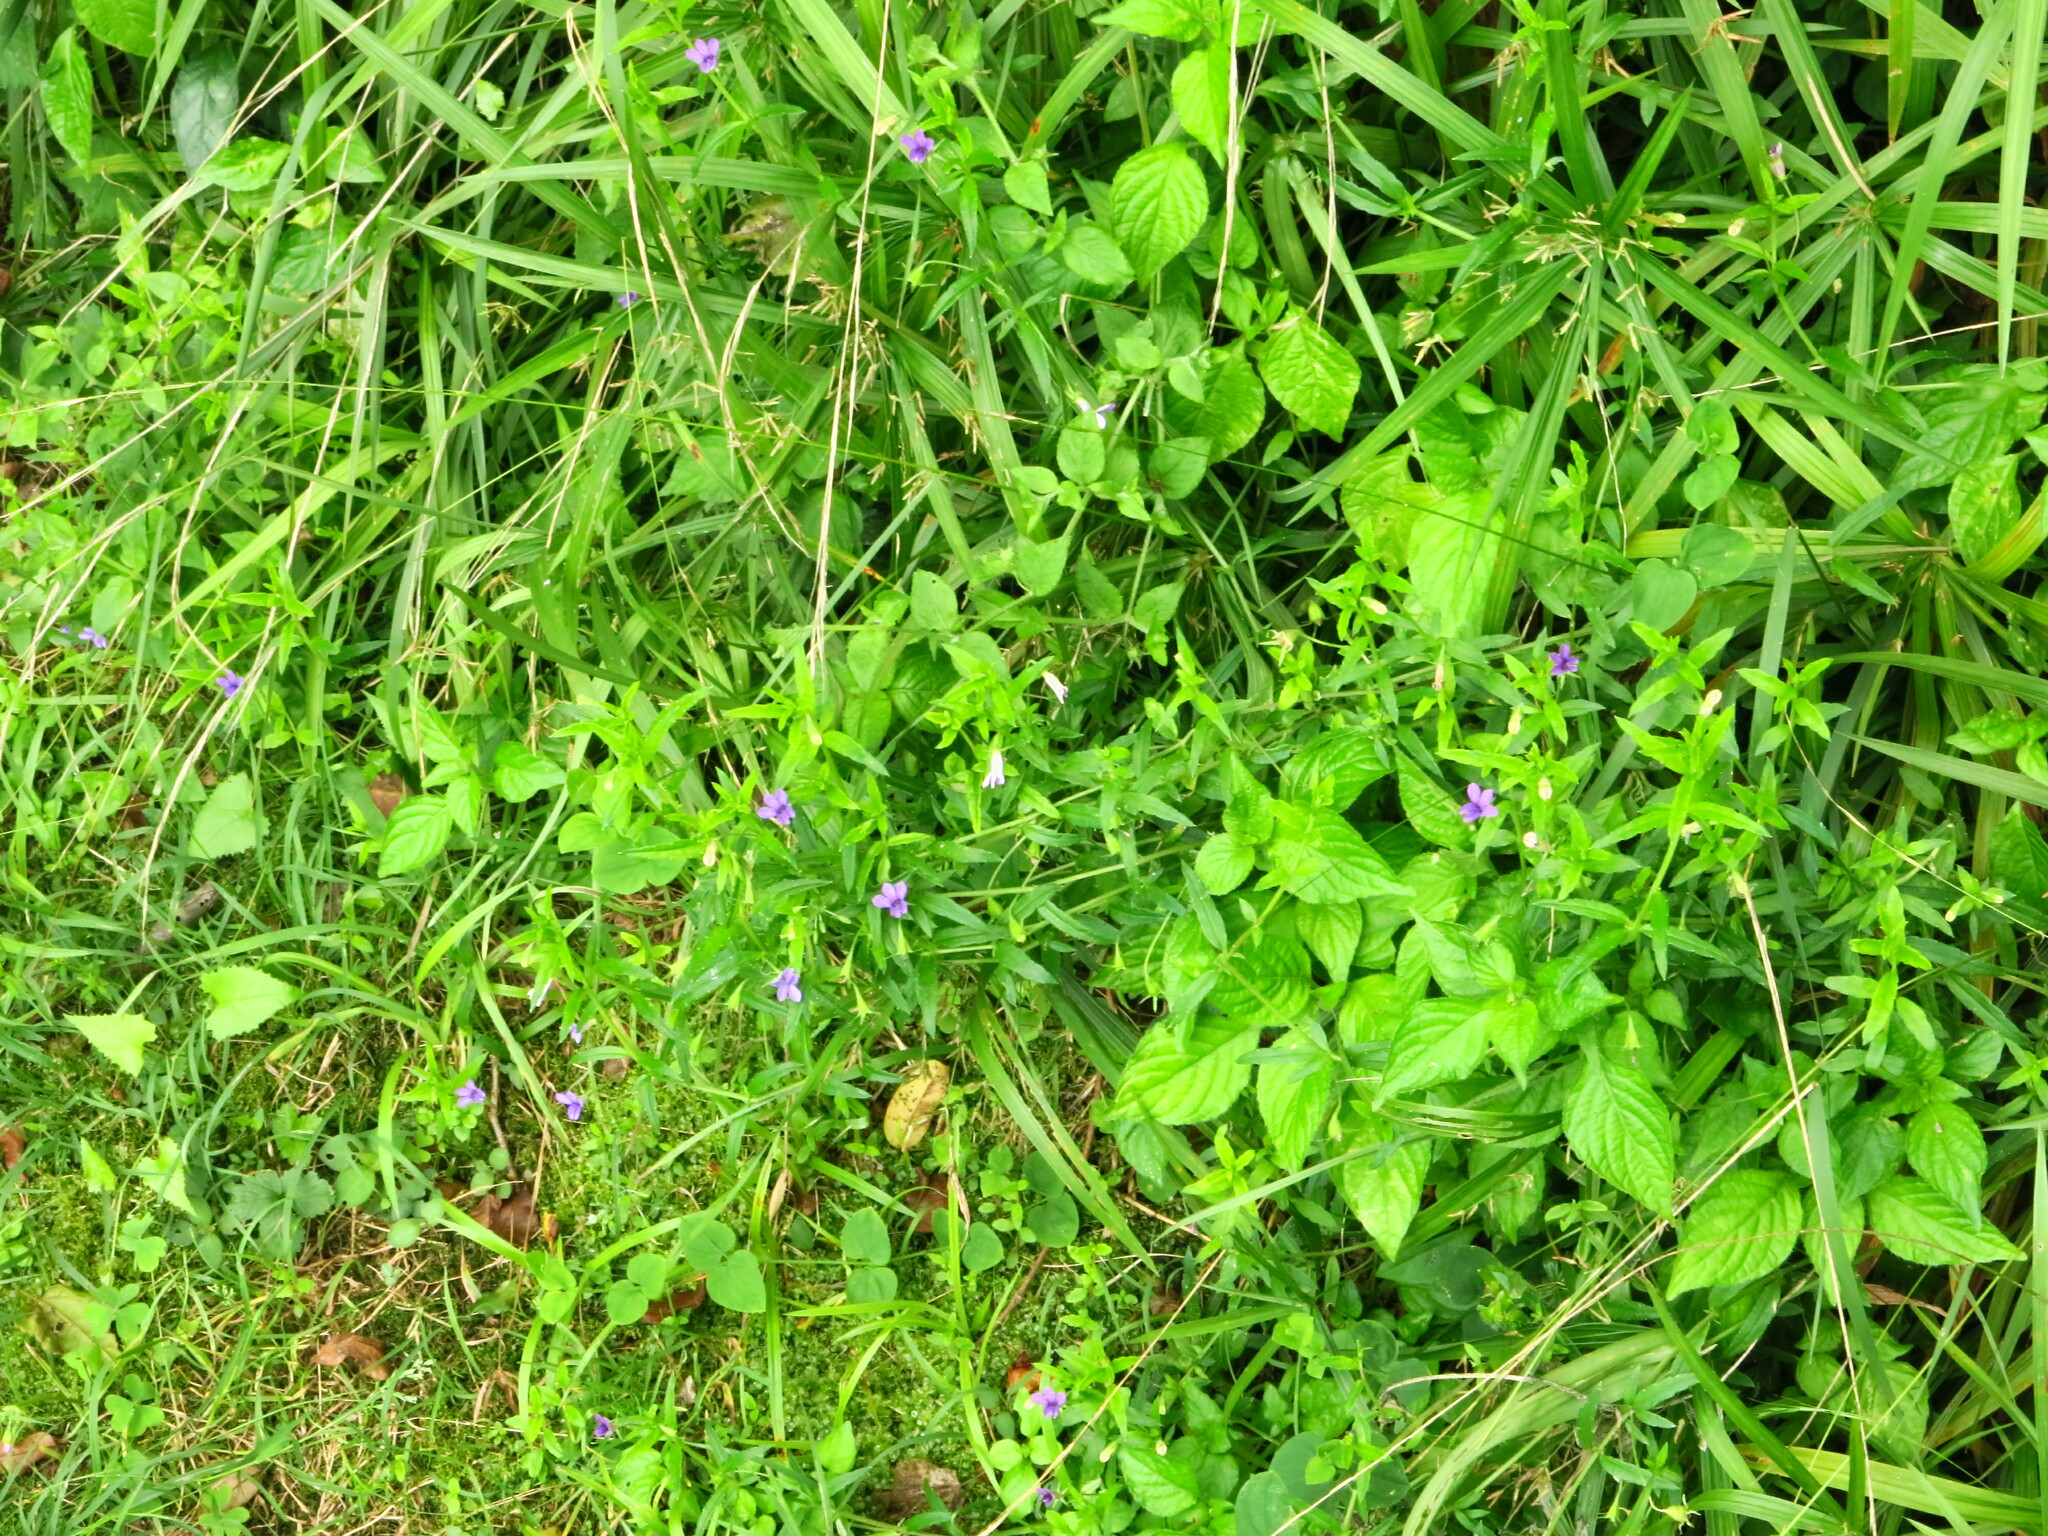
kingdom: Plantae
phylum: Tracheophyta
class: Magnoliopsida
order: Asterales
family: Campanulaceae
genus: Monopsis
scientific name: Monopsis stellarioides
